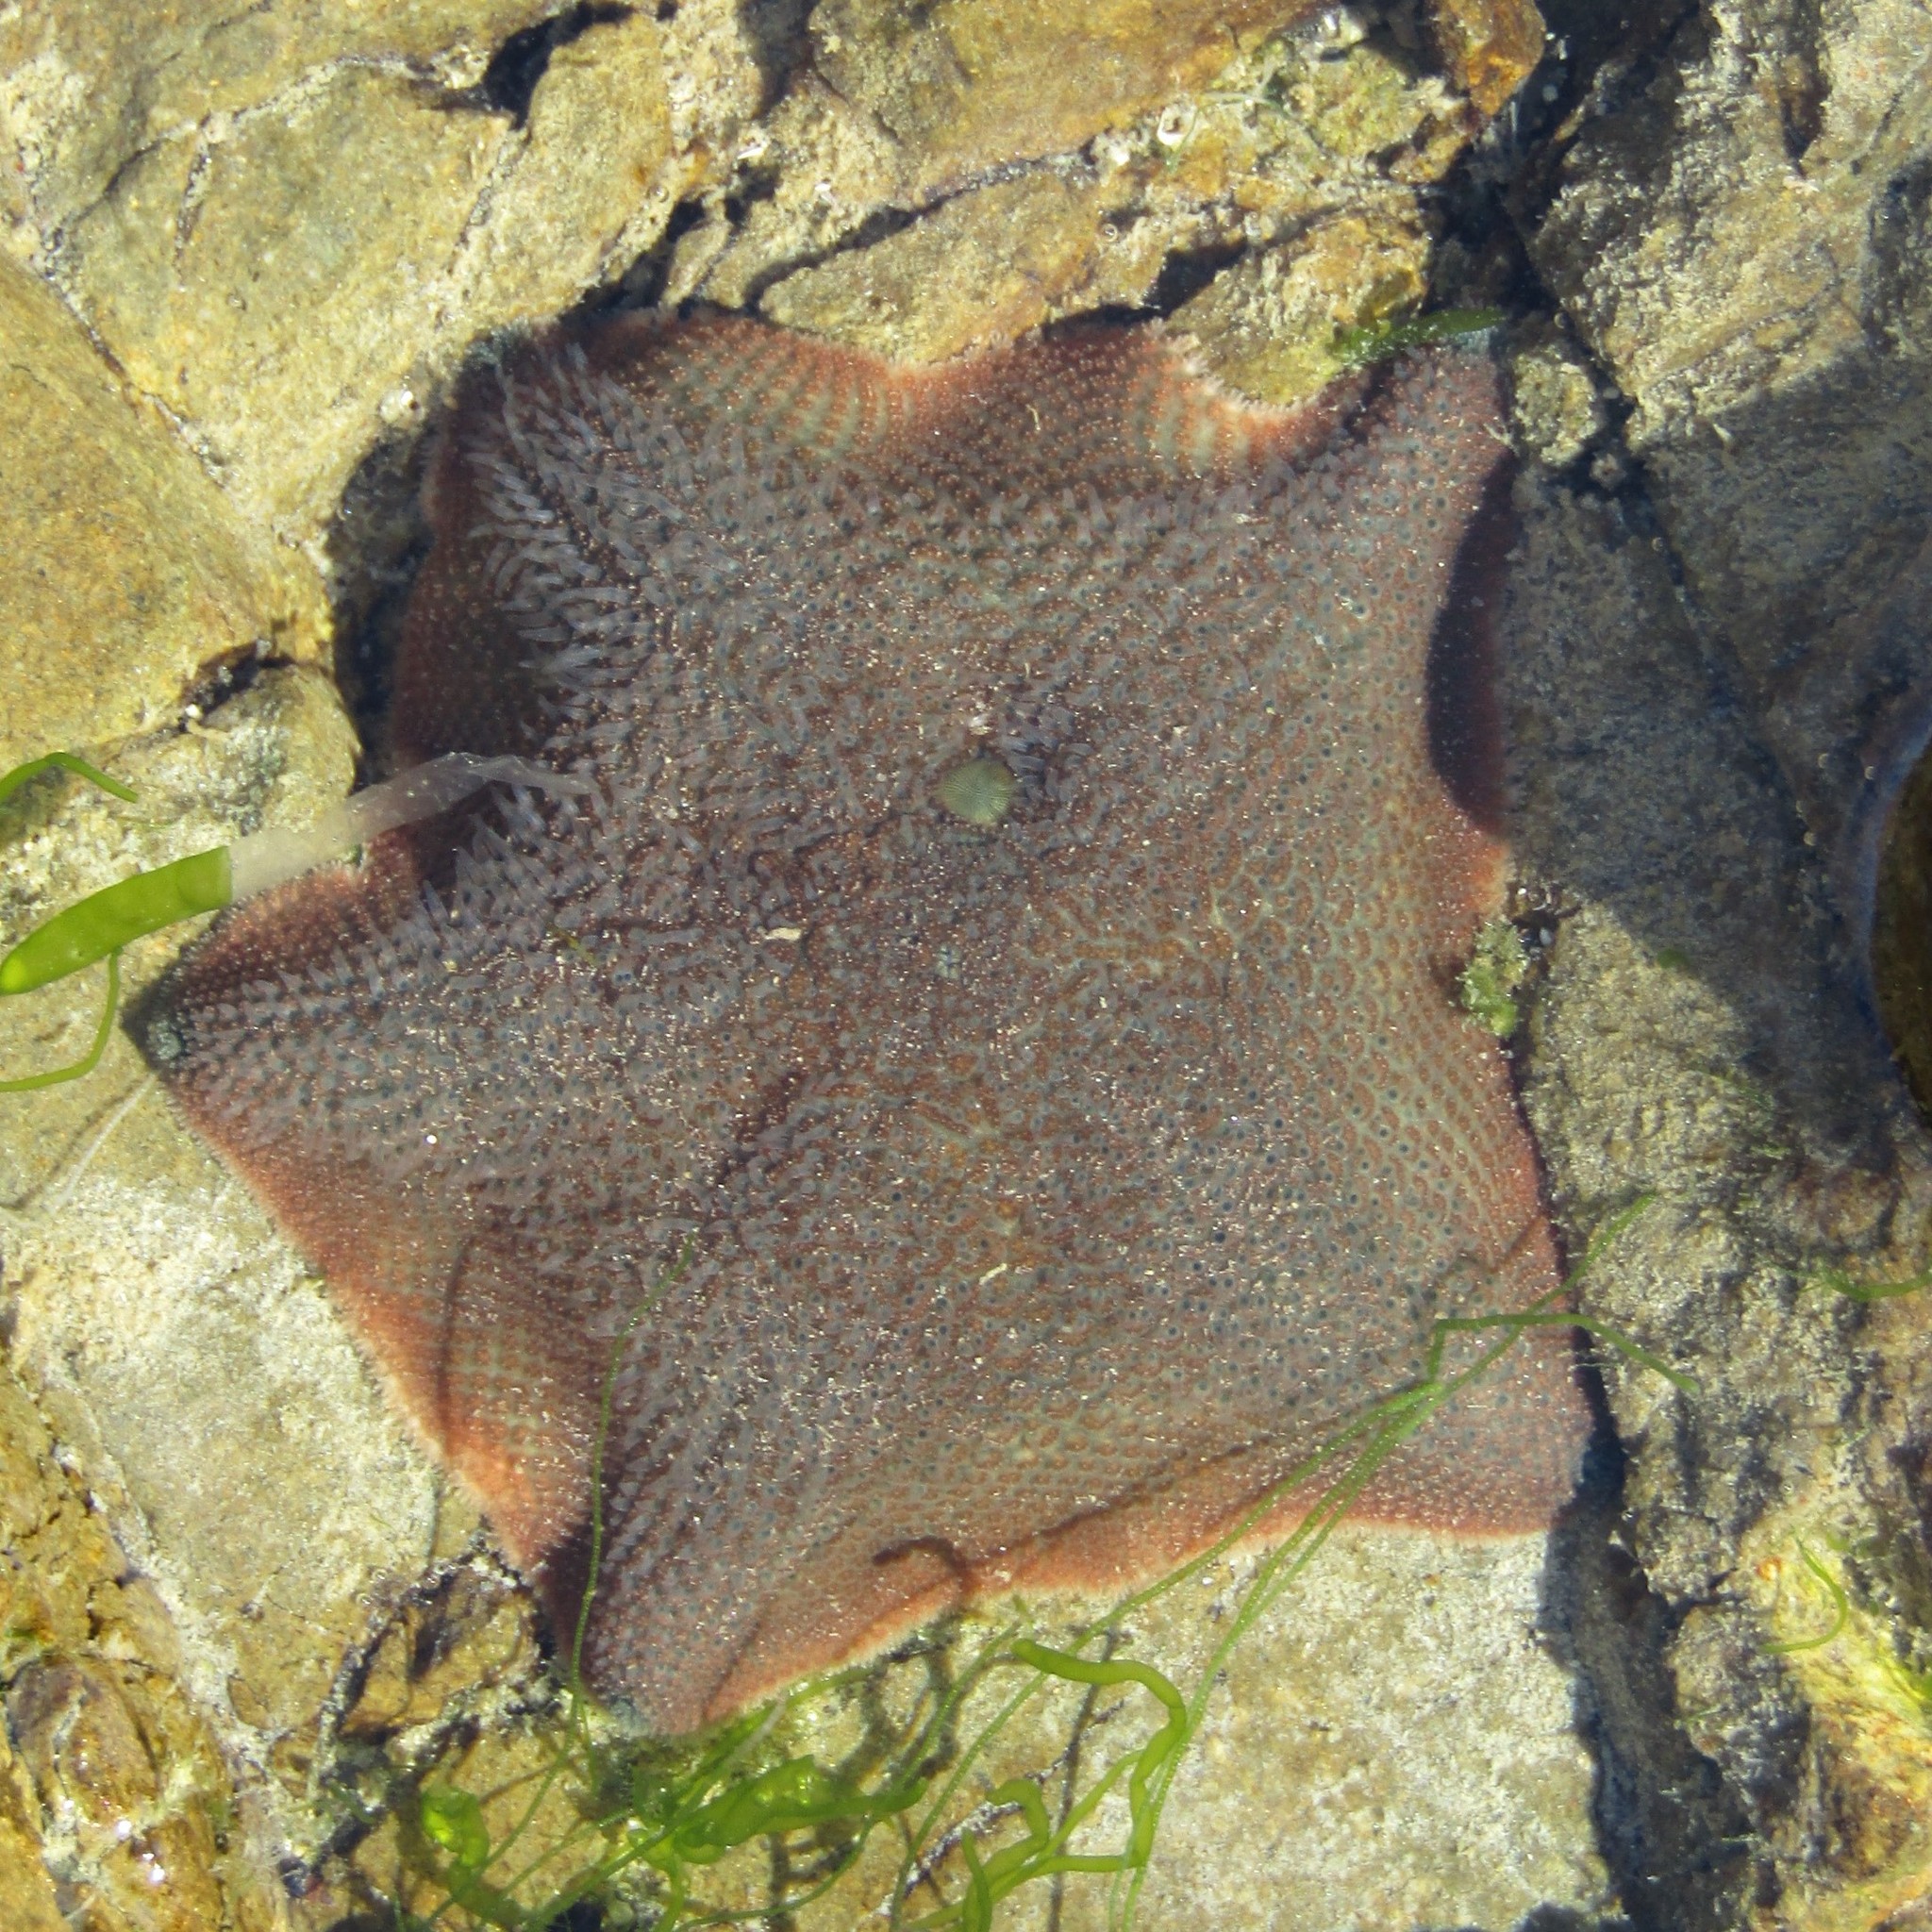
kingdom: Animalia
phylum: Echinodermata
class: Asteroidea
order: Valvatida
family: Asterinidae
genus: Patiriella
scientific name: Patiriella regularis
